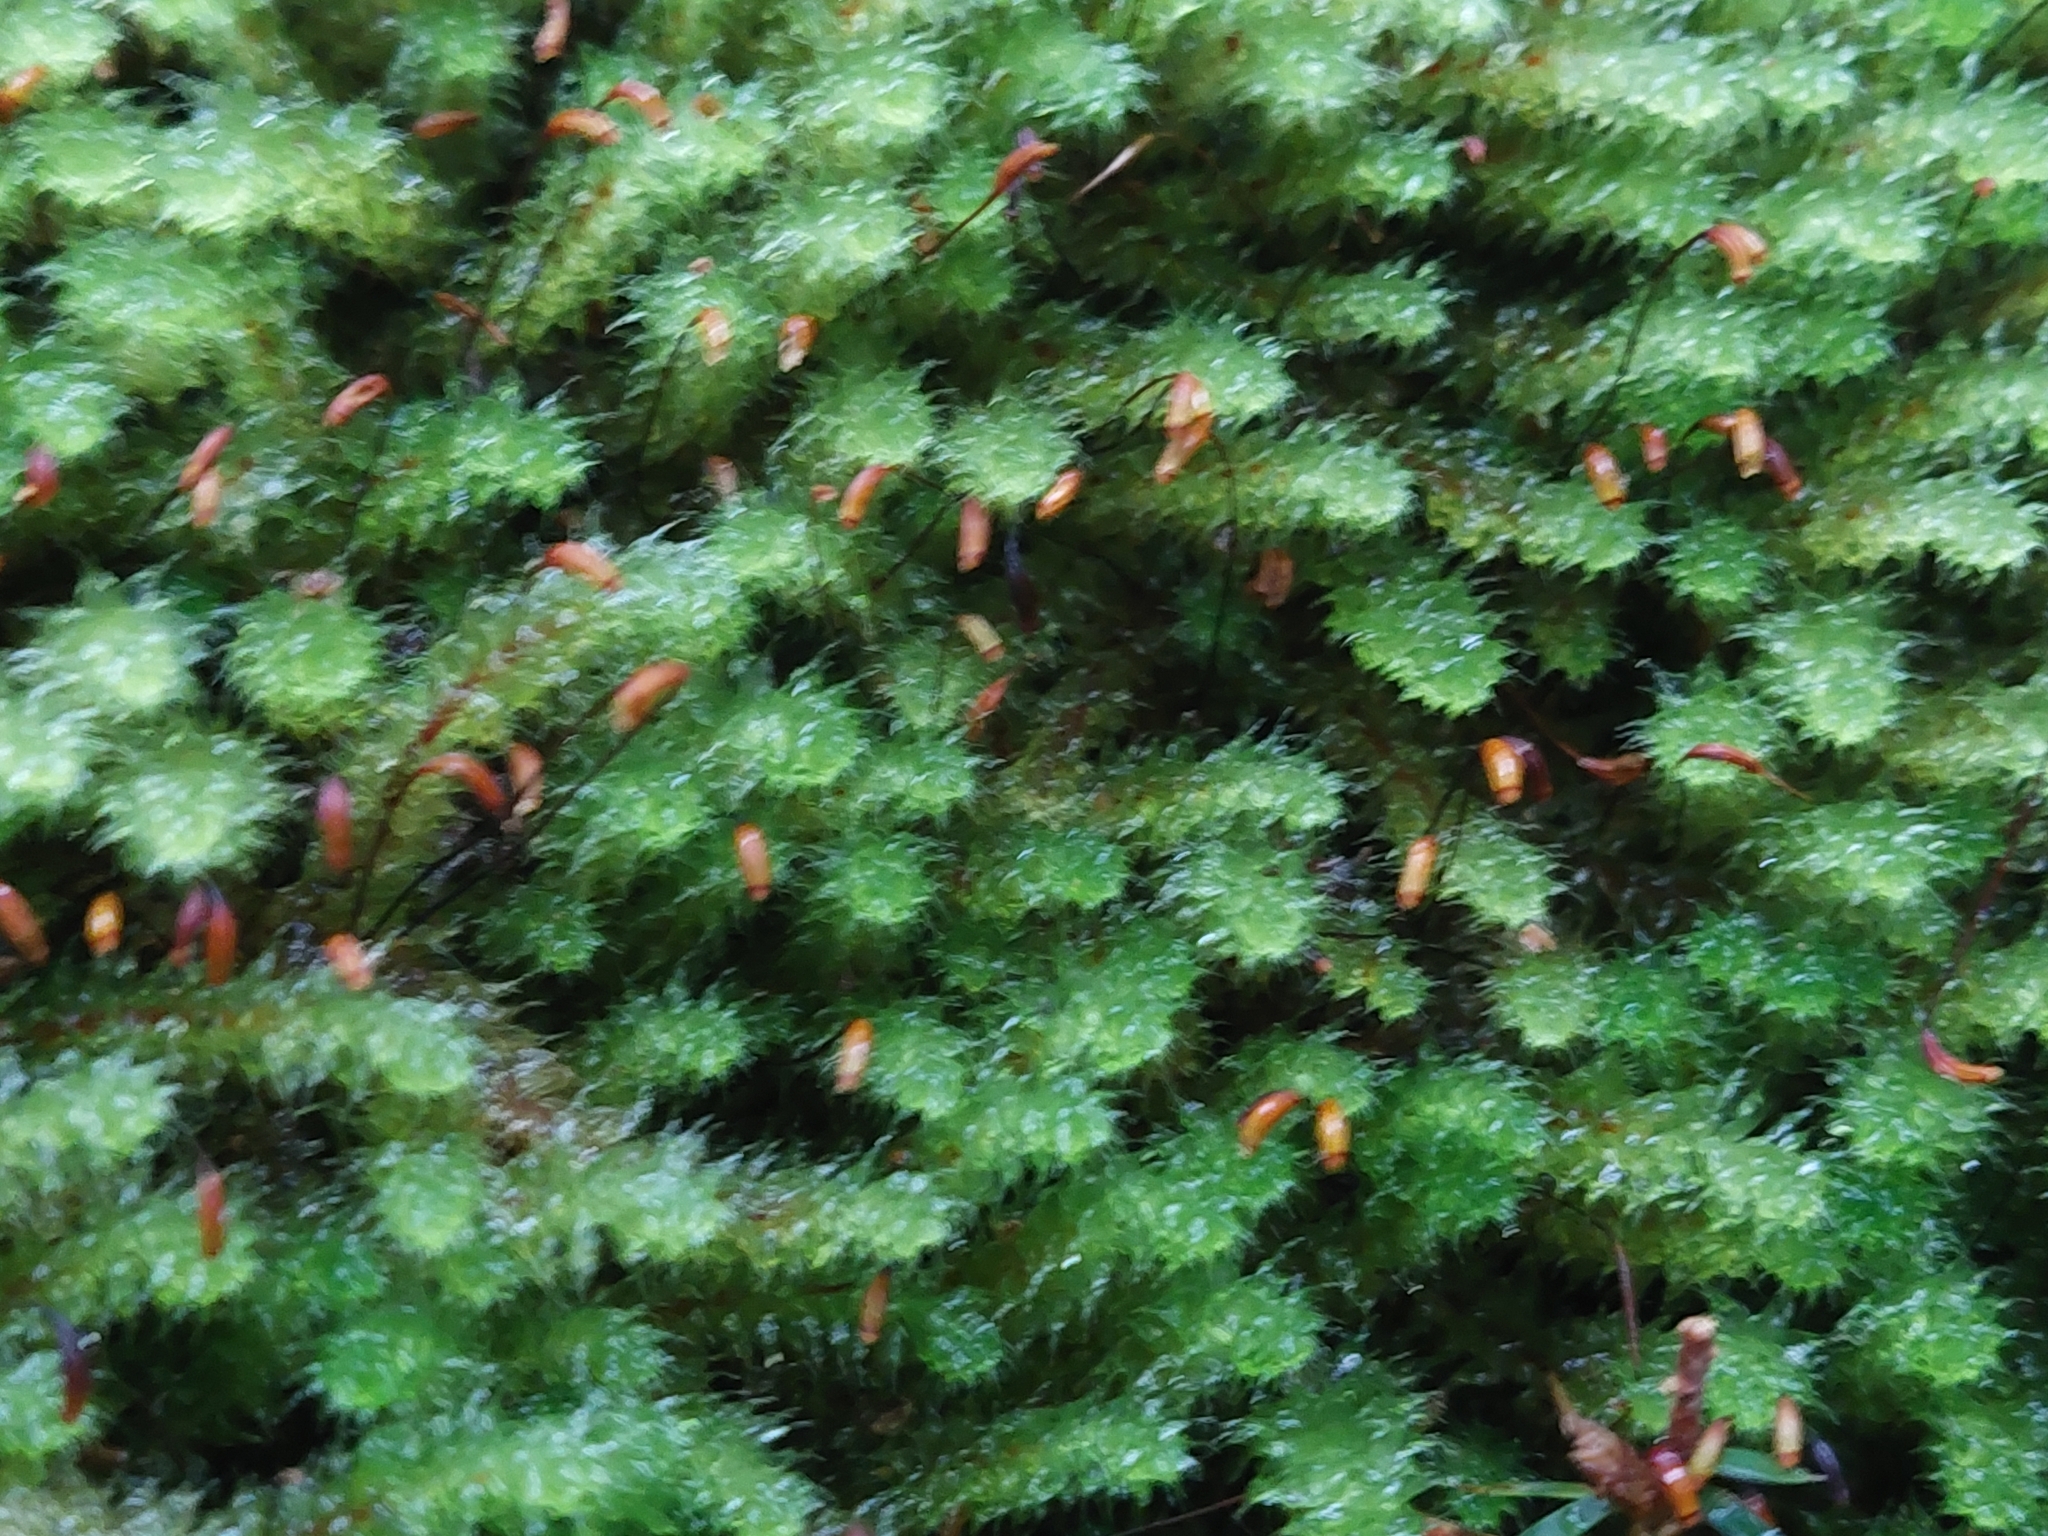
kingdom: Plantae
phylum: Bryophyta
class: Bryopsida
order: Ptychomniales
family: Ptychomniaceae
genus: Ptychomnion
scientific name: Ptychomnion aciculare
